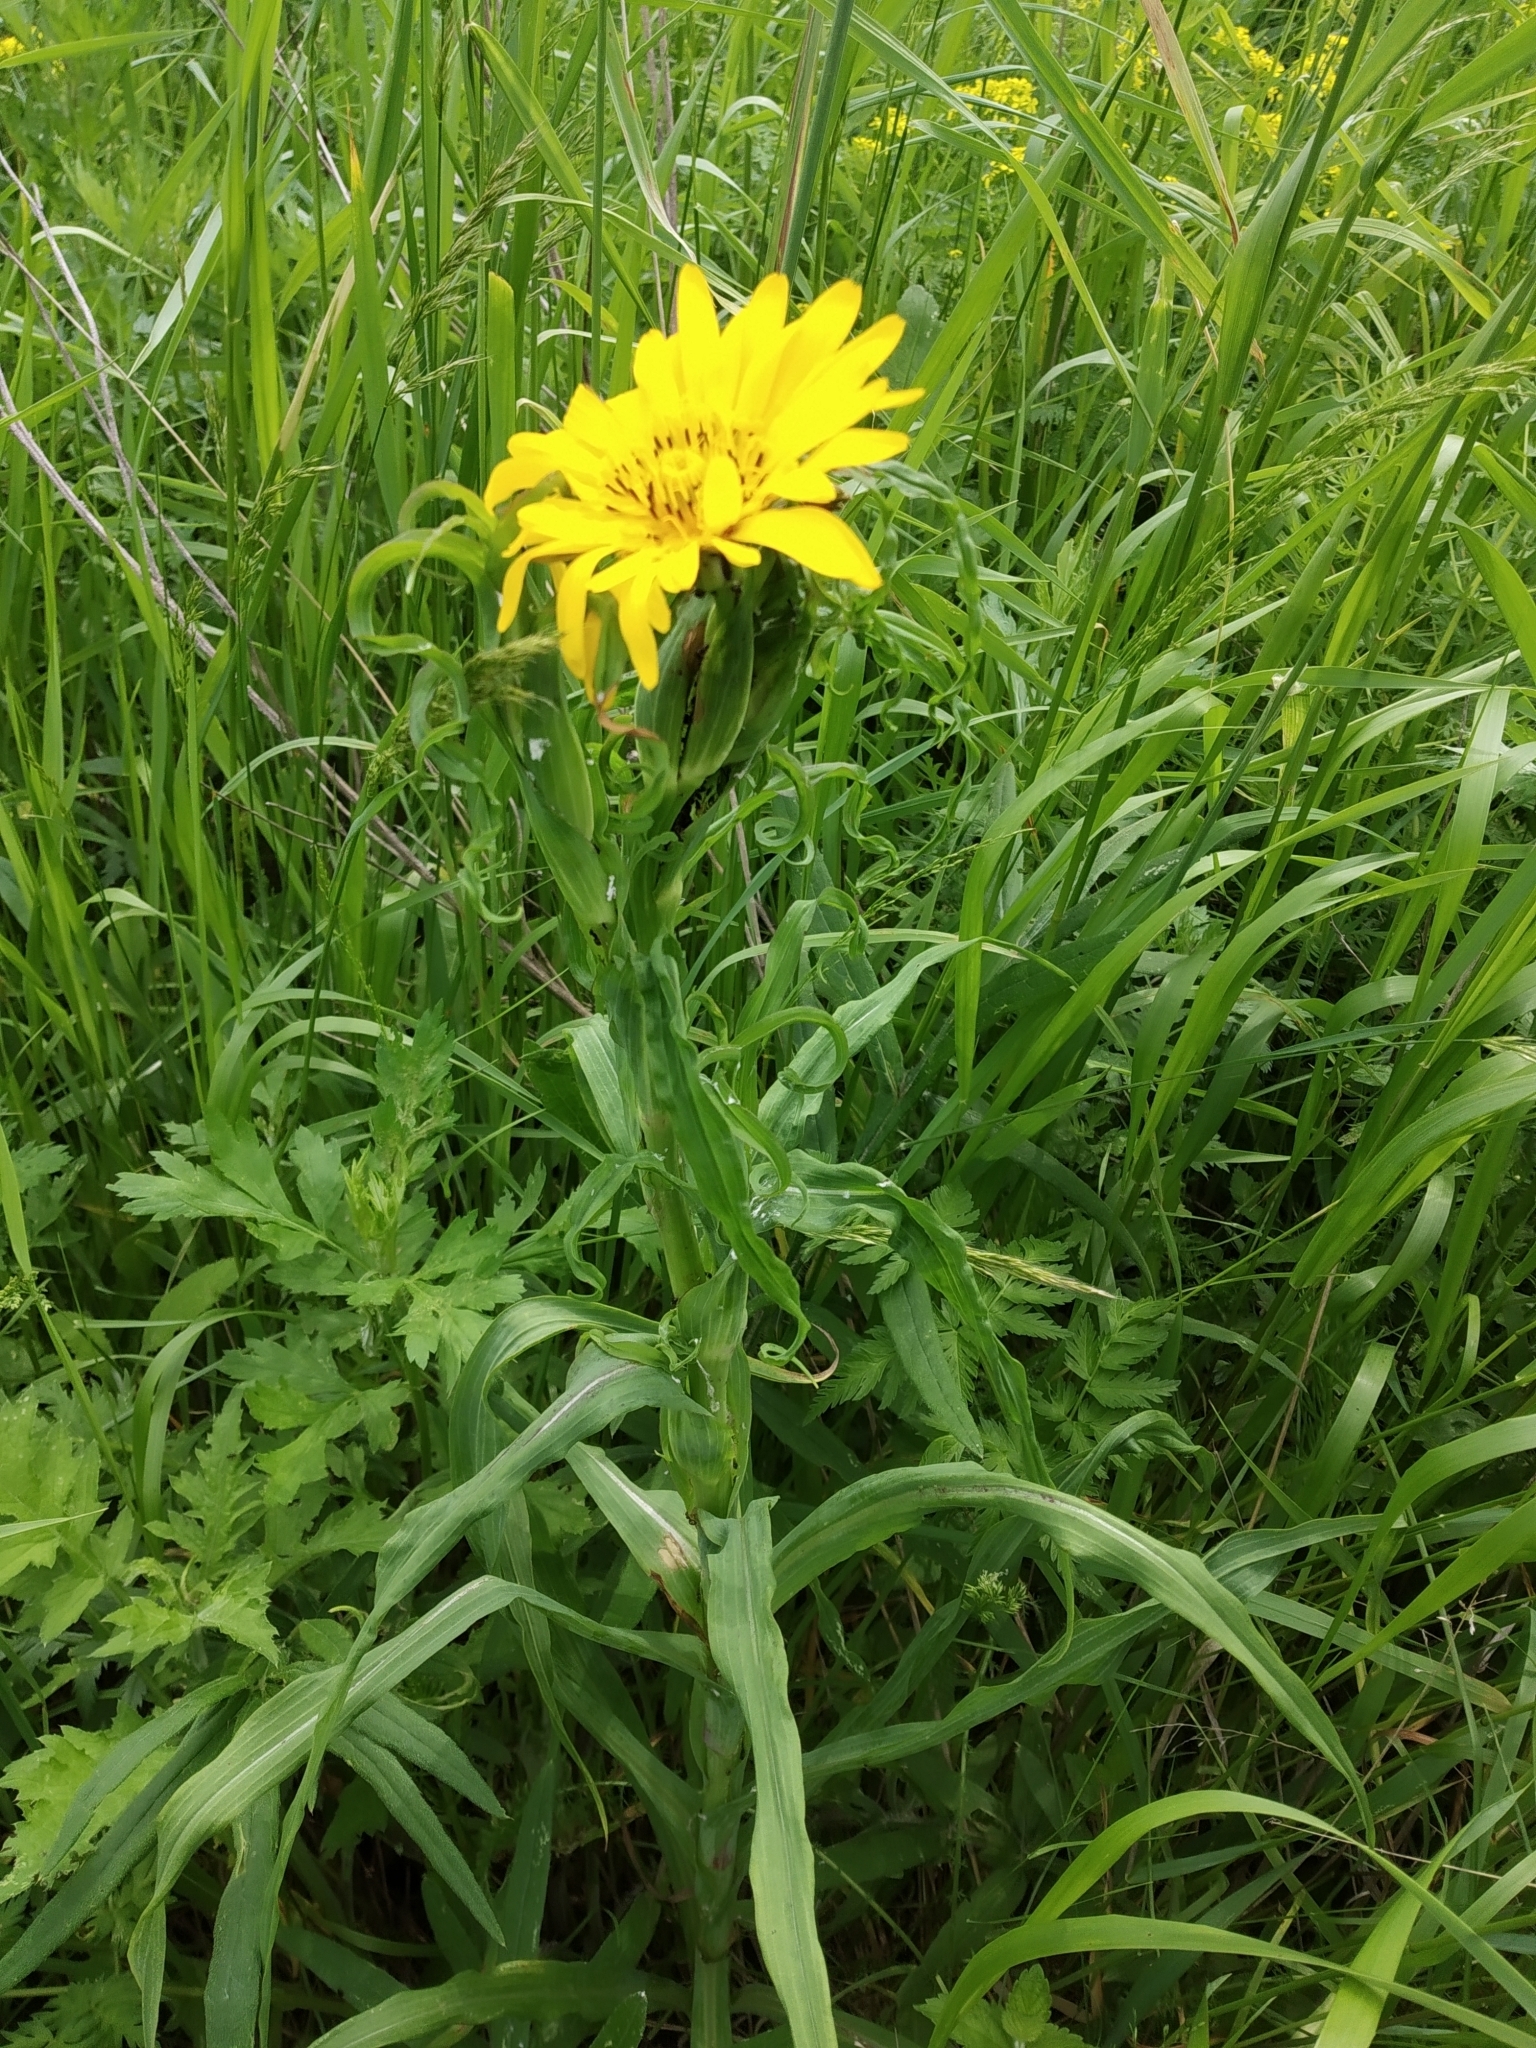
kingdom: Plantae
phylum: Tracheophyta
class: Magnoliopsida
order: Asterales
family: Asteraceae
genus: Tragopogon
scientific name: Tragopogon orientalis
